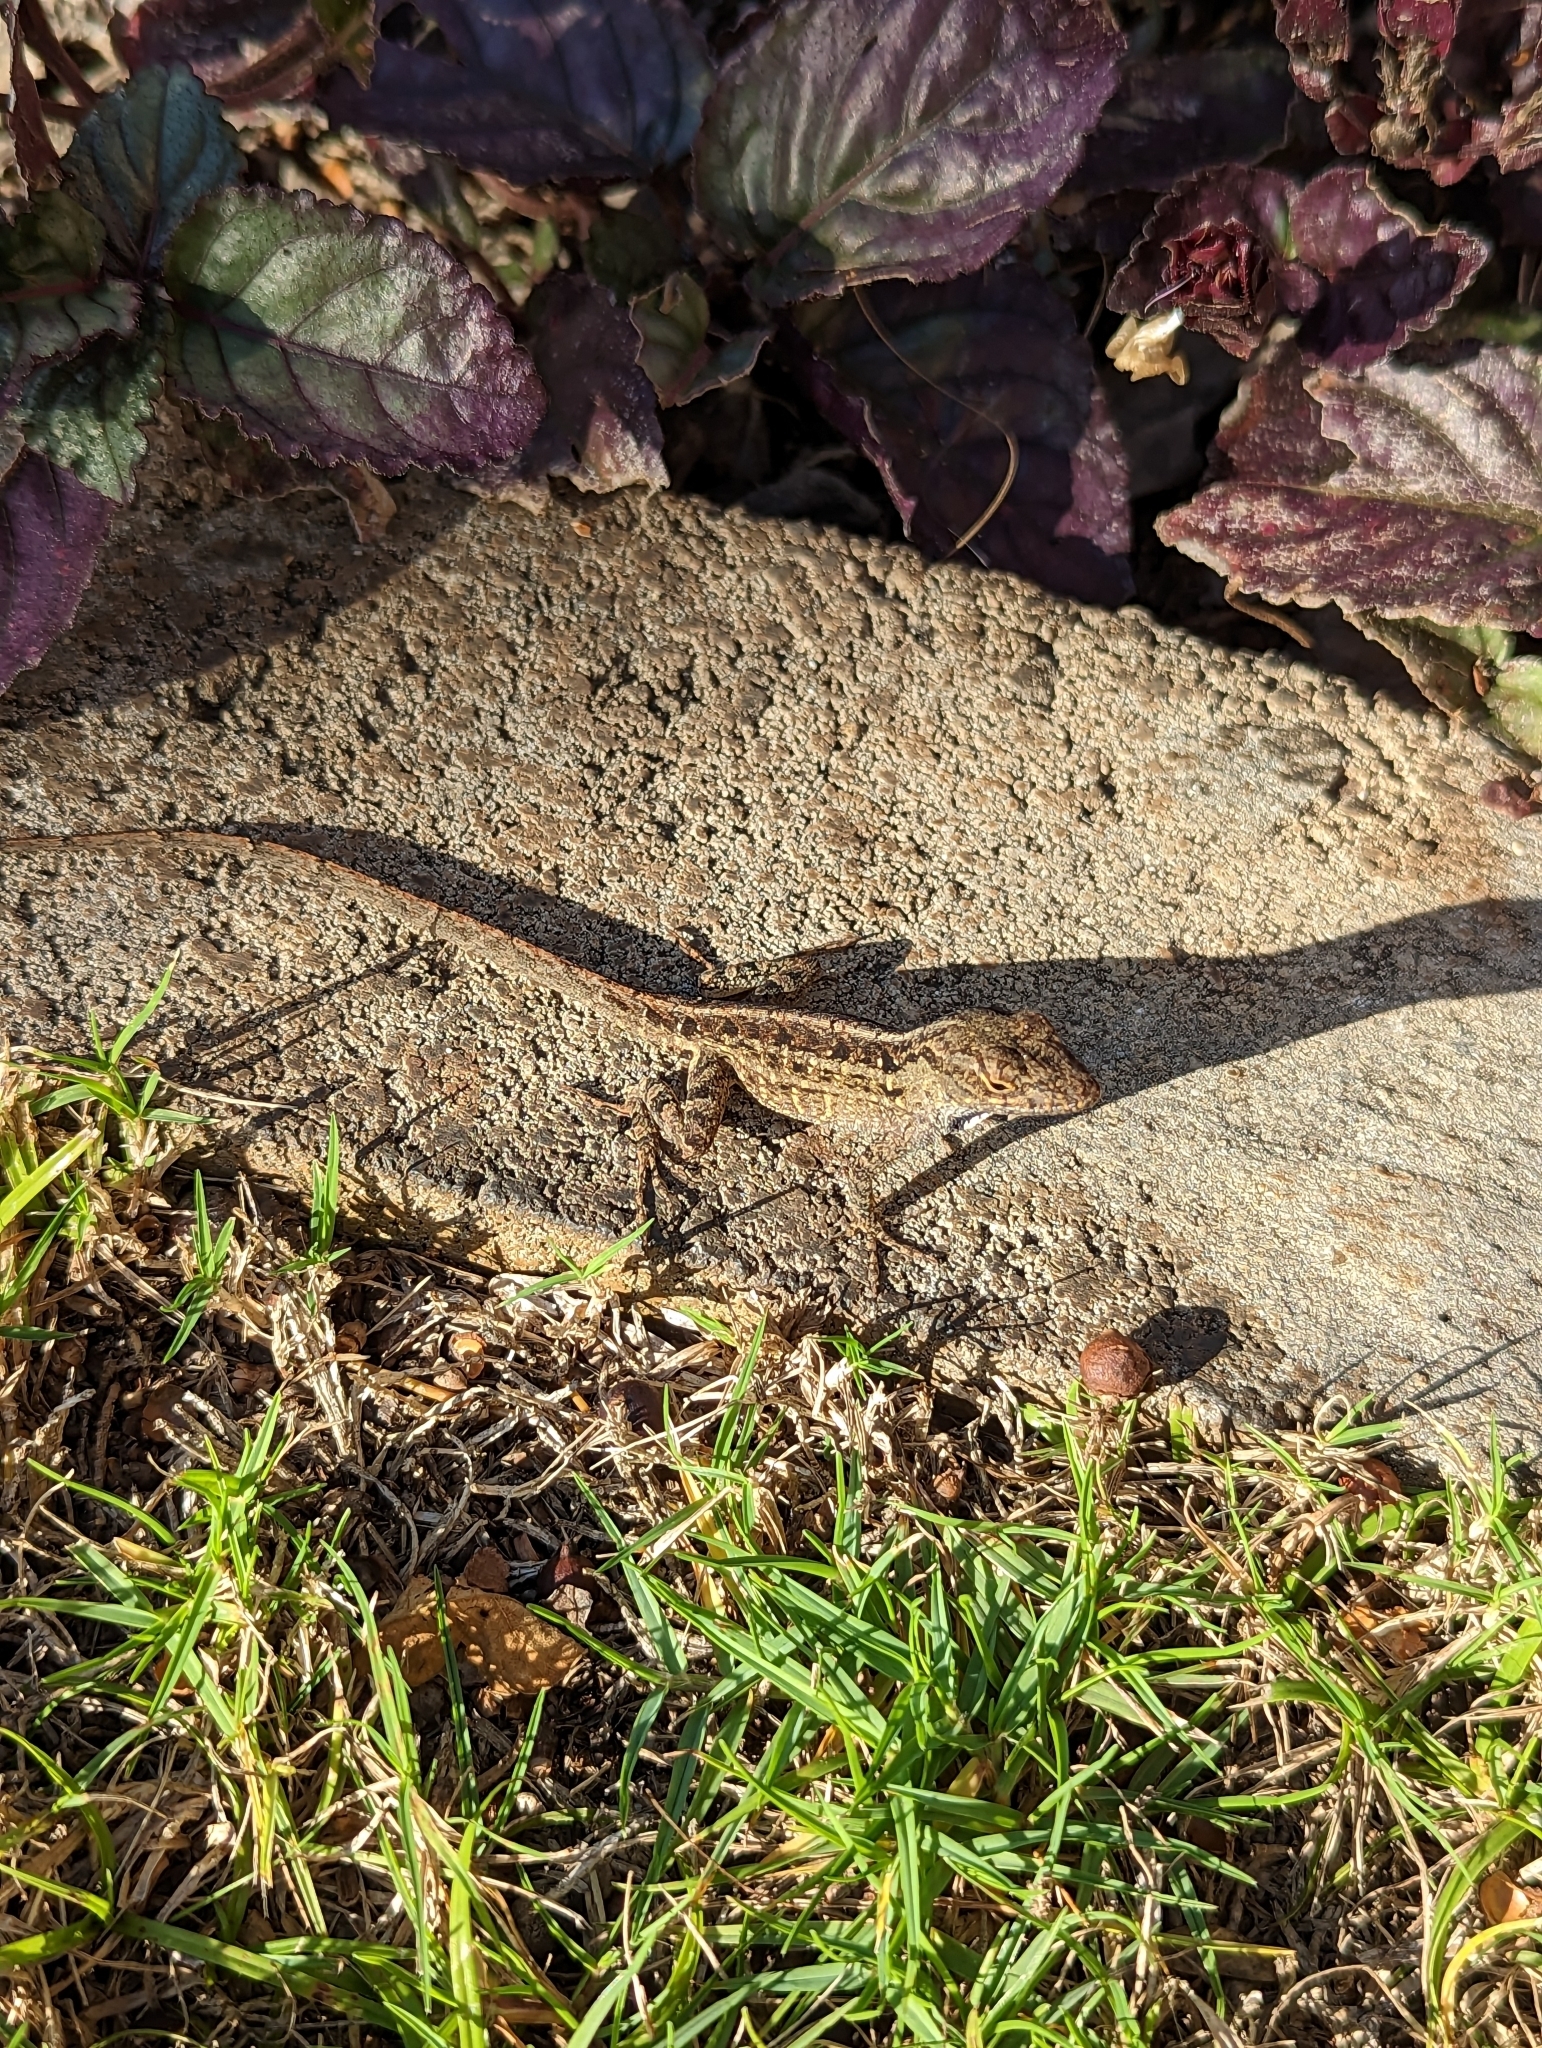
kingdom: Animalia
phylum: Chordata
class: Squamata
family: Dactyloidae
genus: Anolis
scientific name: Anolis sagrei
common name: Brown anole
